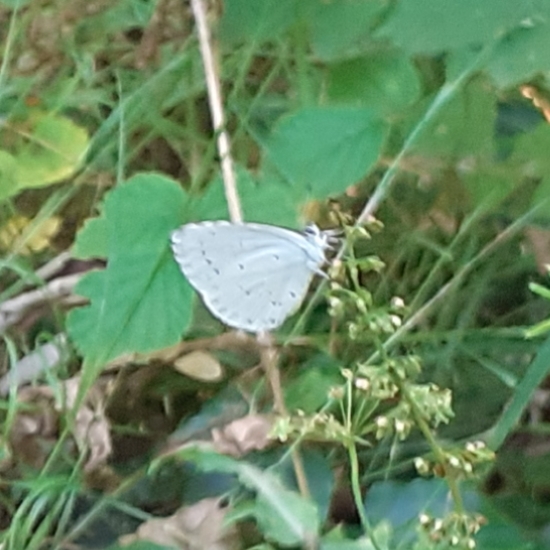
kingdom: Animalia
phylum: Arthropoda
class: Insecta
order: Lepidoptera
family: Lycaenidae
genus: Celastrina
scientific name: Celastrina argiolus
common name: Holly blue
